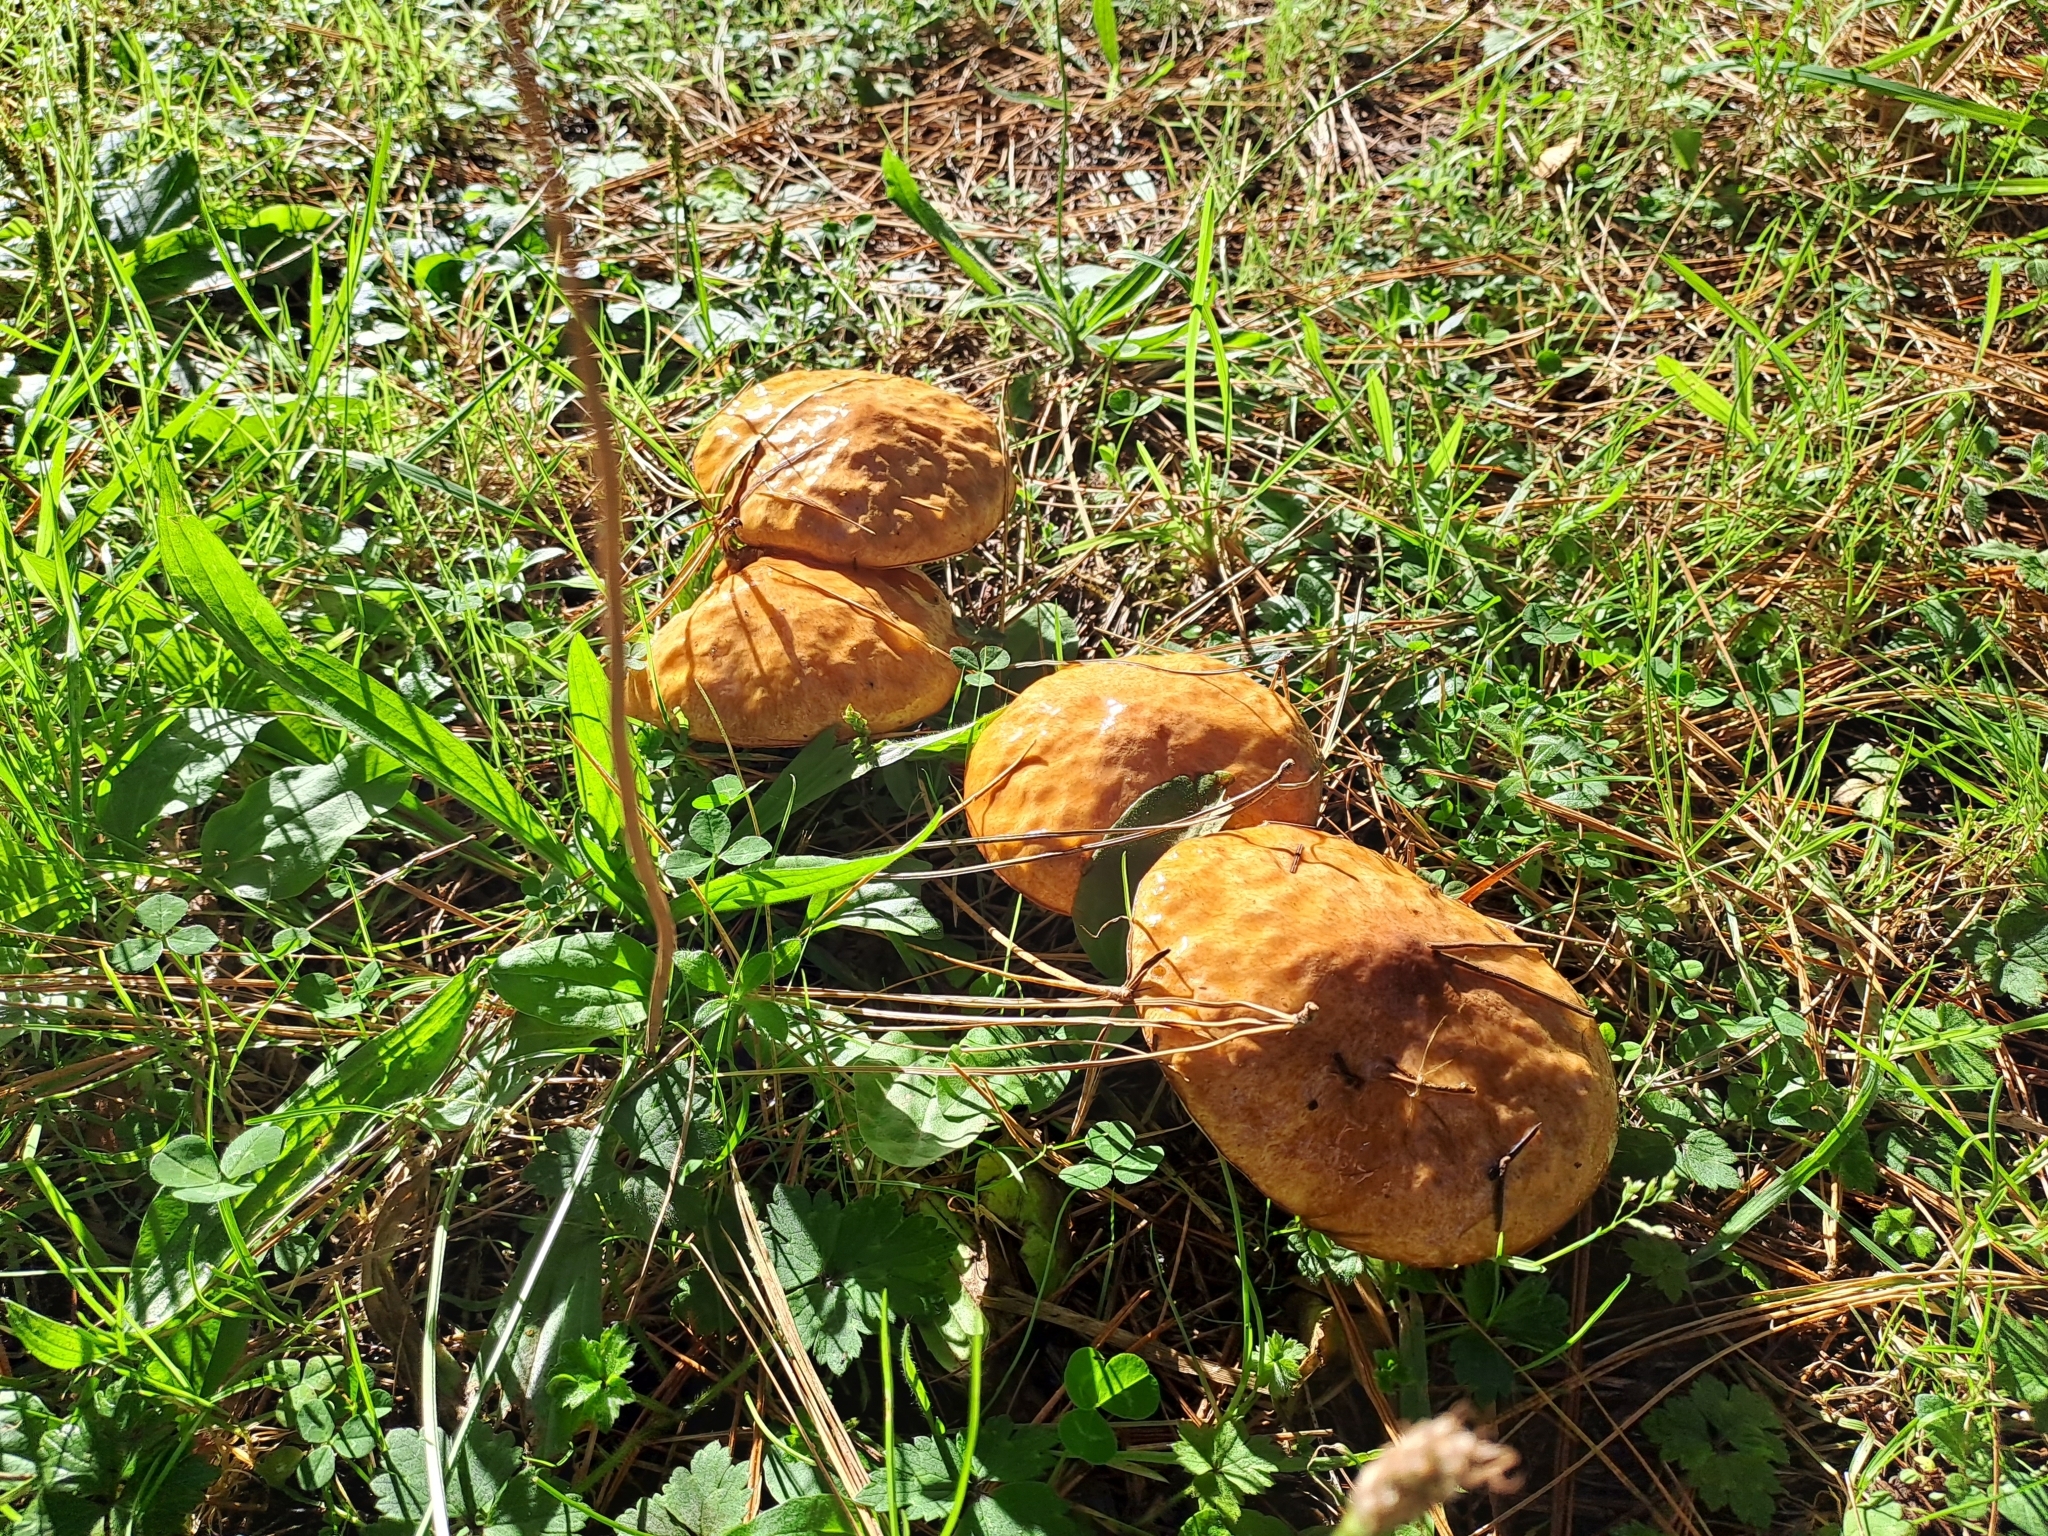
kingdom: Fungi
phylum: Basidiomycota
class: Agaricomycetes
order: Boletales
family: Suillaceae
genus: Suillus
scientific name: Suillus luteus
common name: Slippery jack
